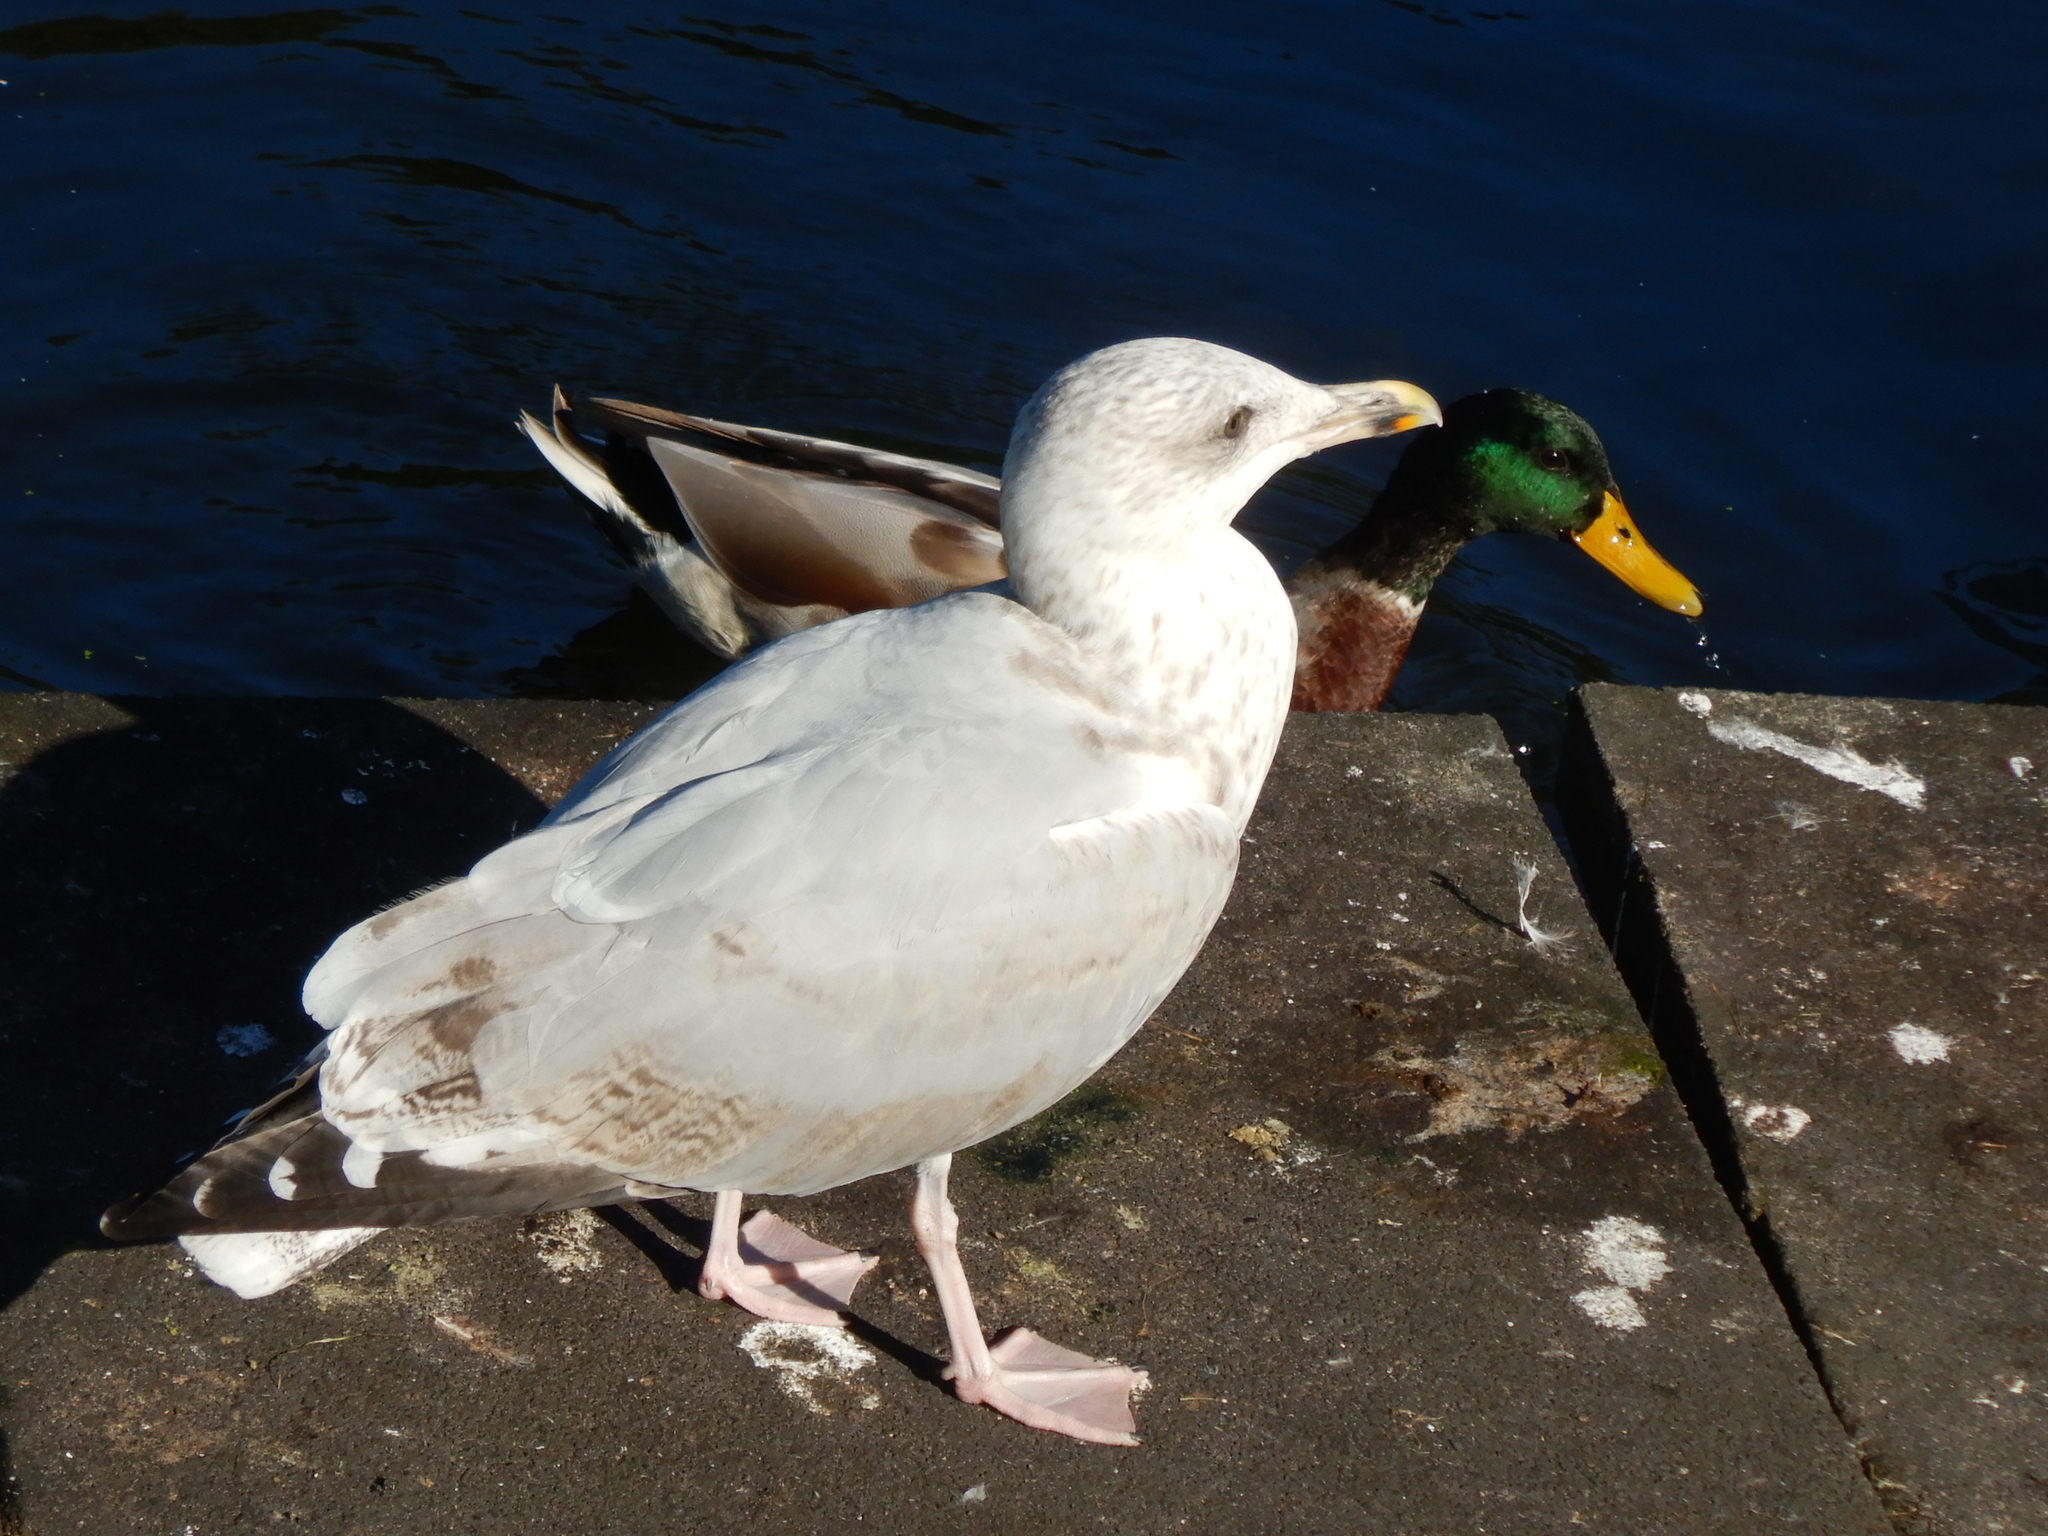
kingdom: Animalia
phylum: Chordata
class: Aves
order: Charadriiformes
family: Laridae
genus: Larus
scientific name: Larus argentatus
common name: Herring gull
